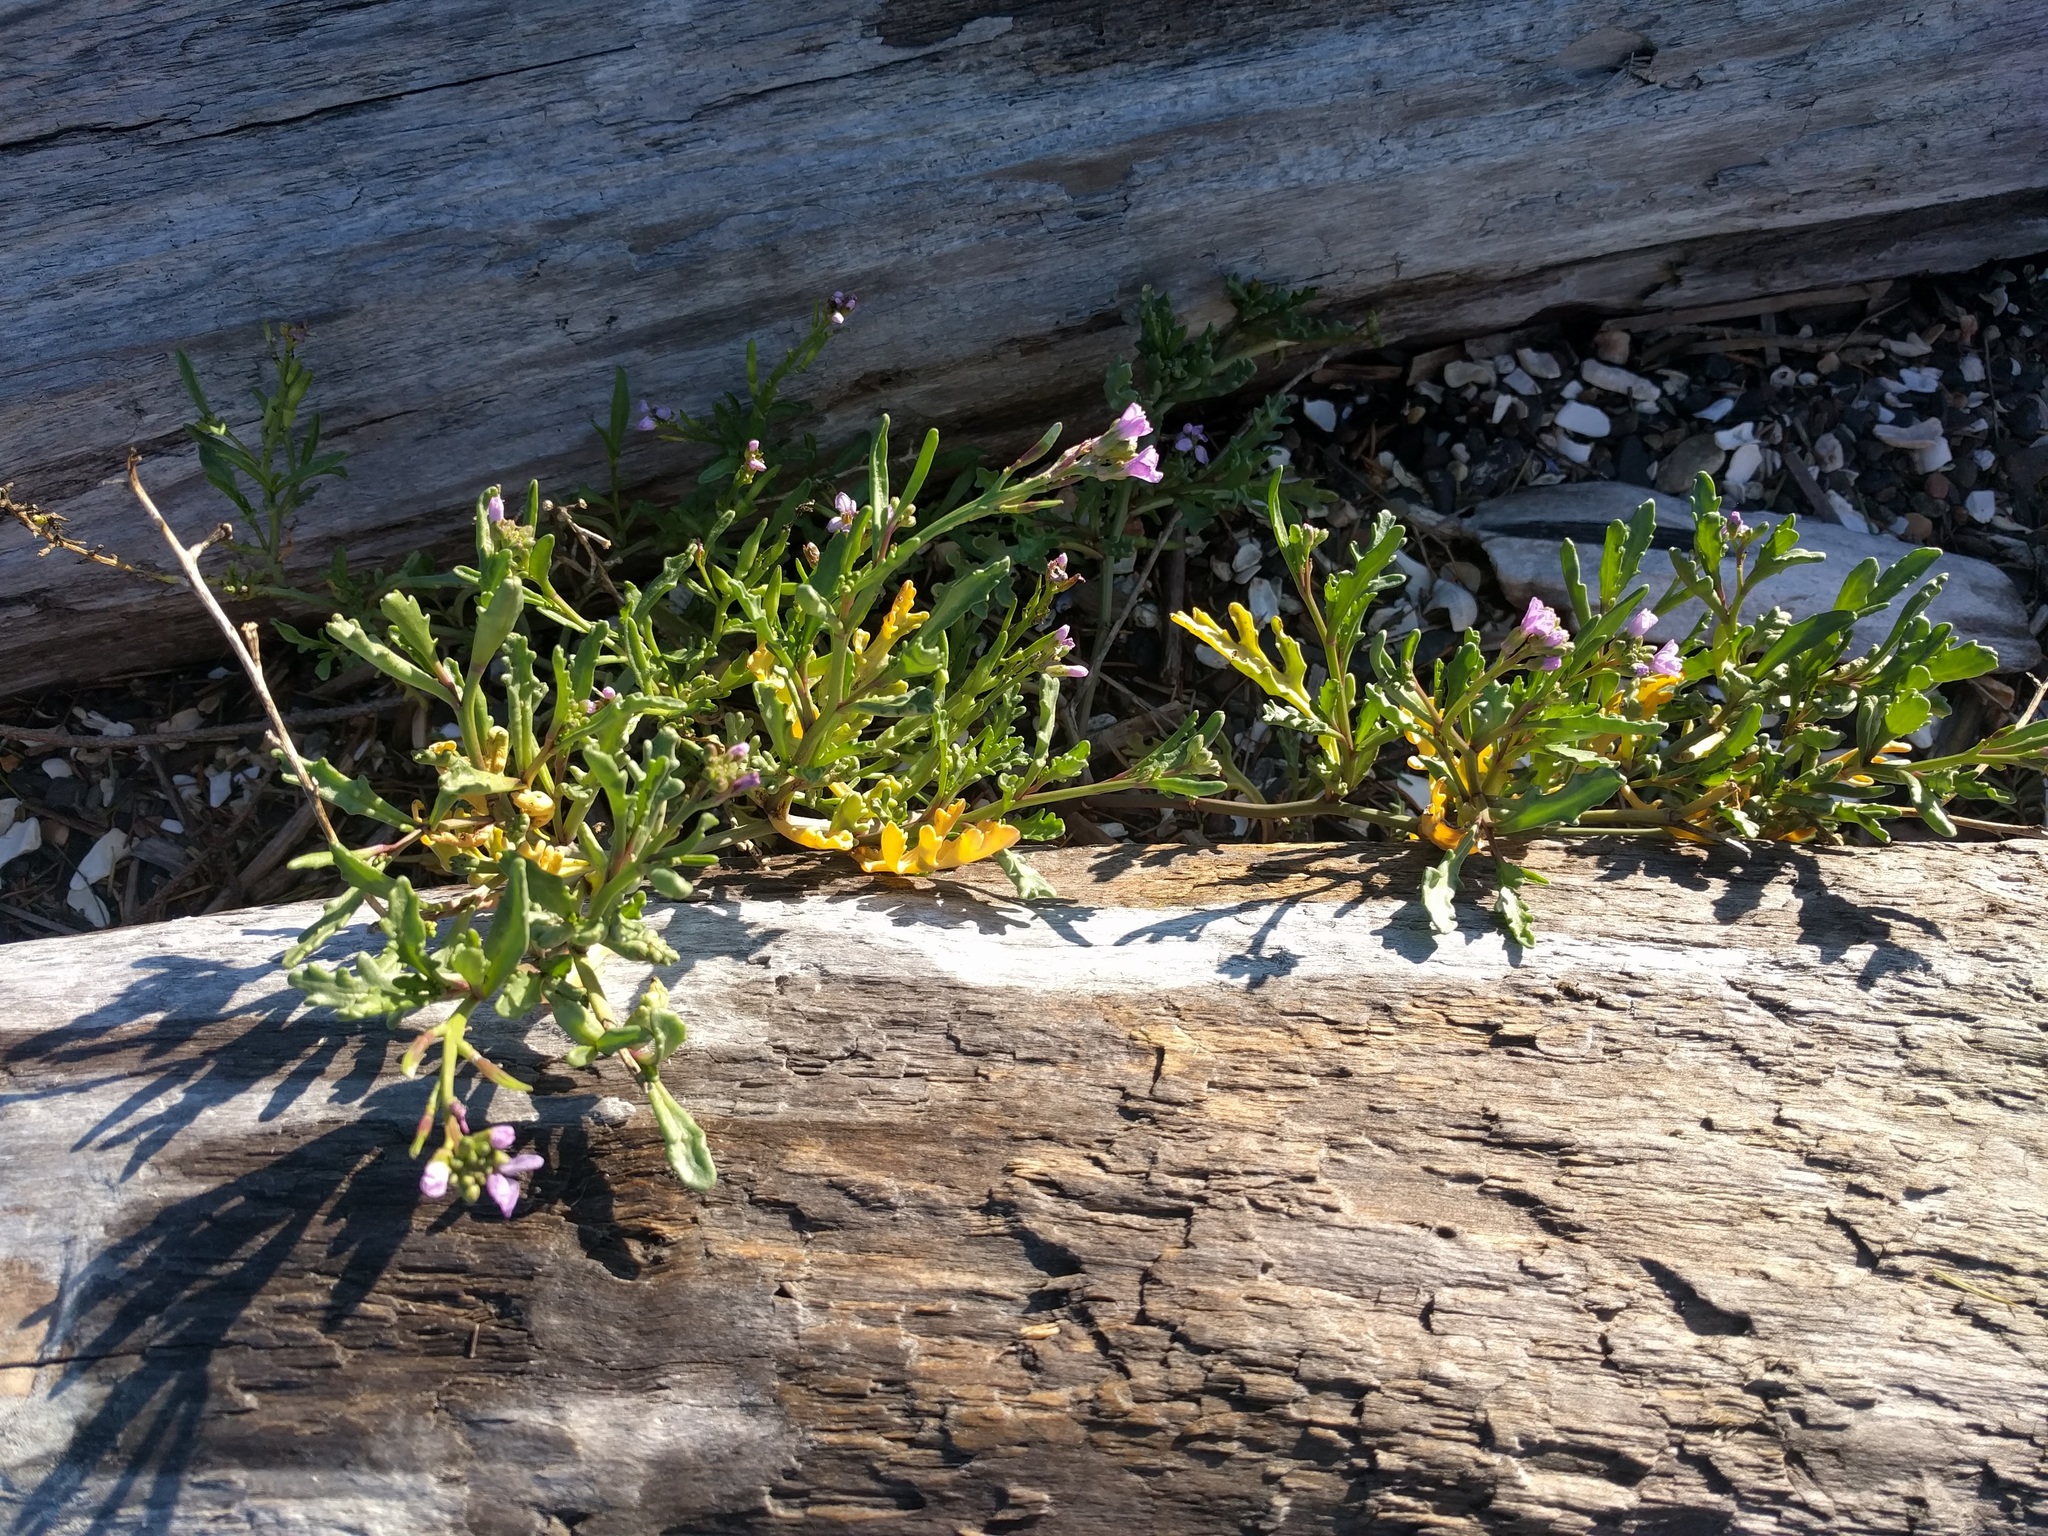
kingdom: Plantae
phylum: Tracheophyta
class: Magnoliopsida
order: Brassicales
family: Brassicaceae
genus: Cakile
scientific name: Cakile maritima
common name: Sea rocket
